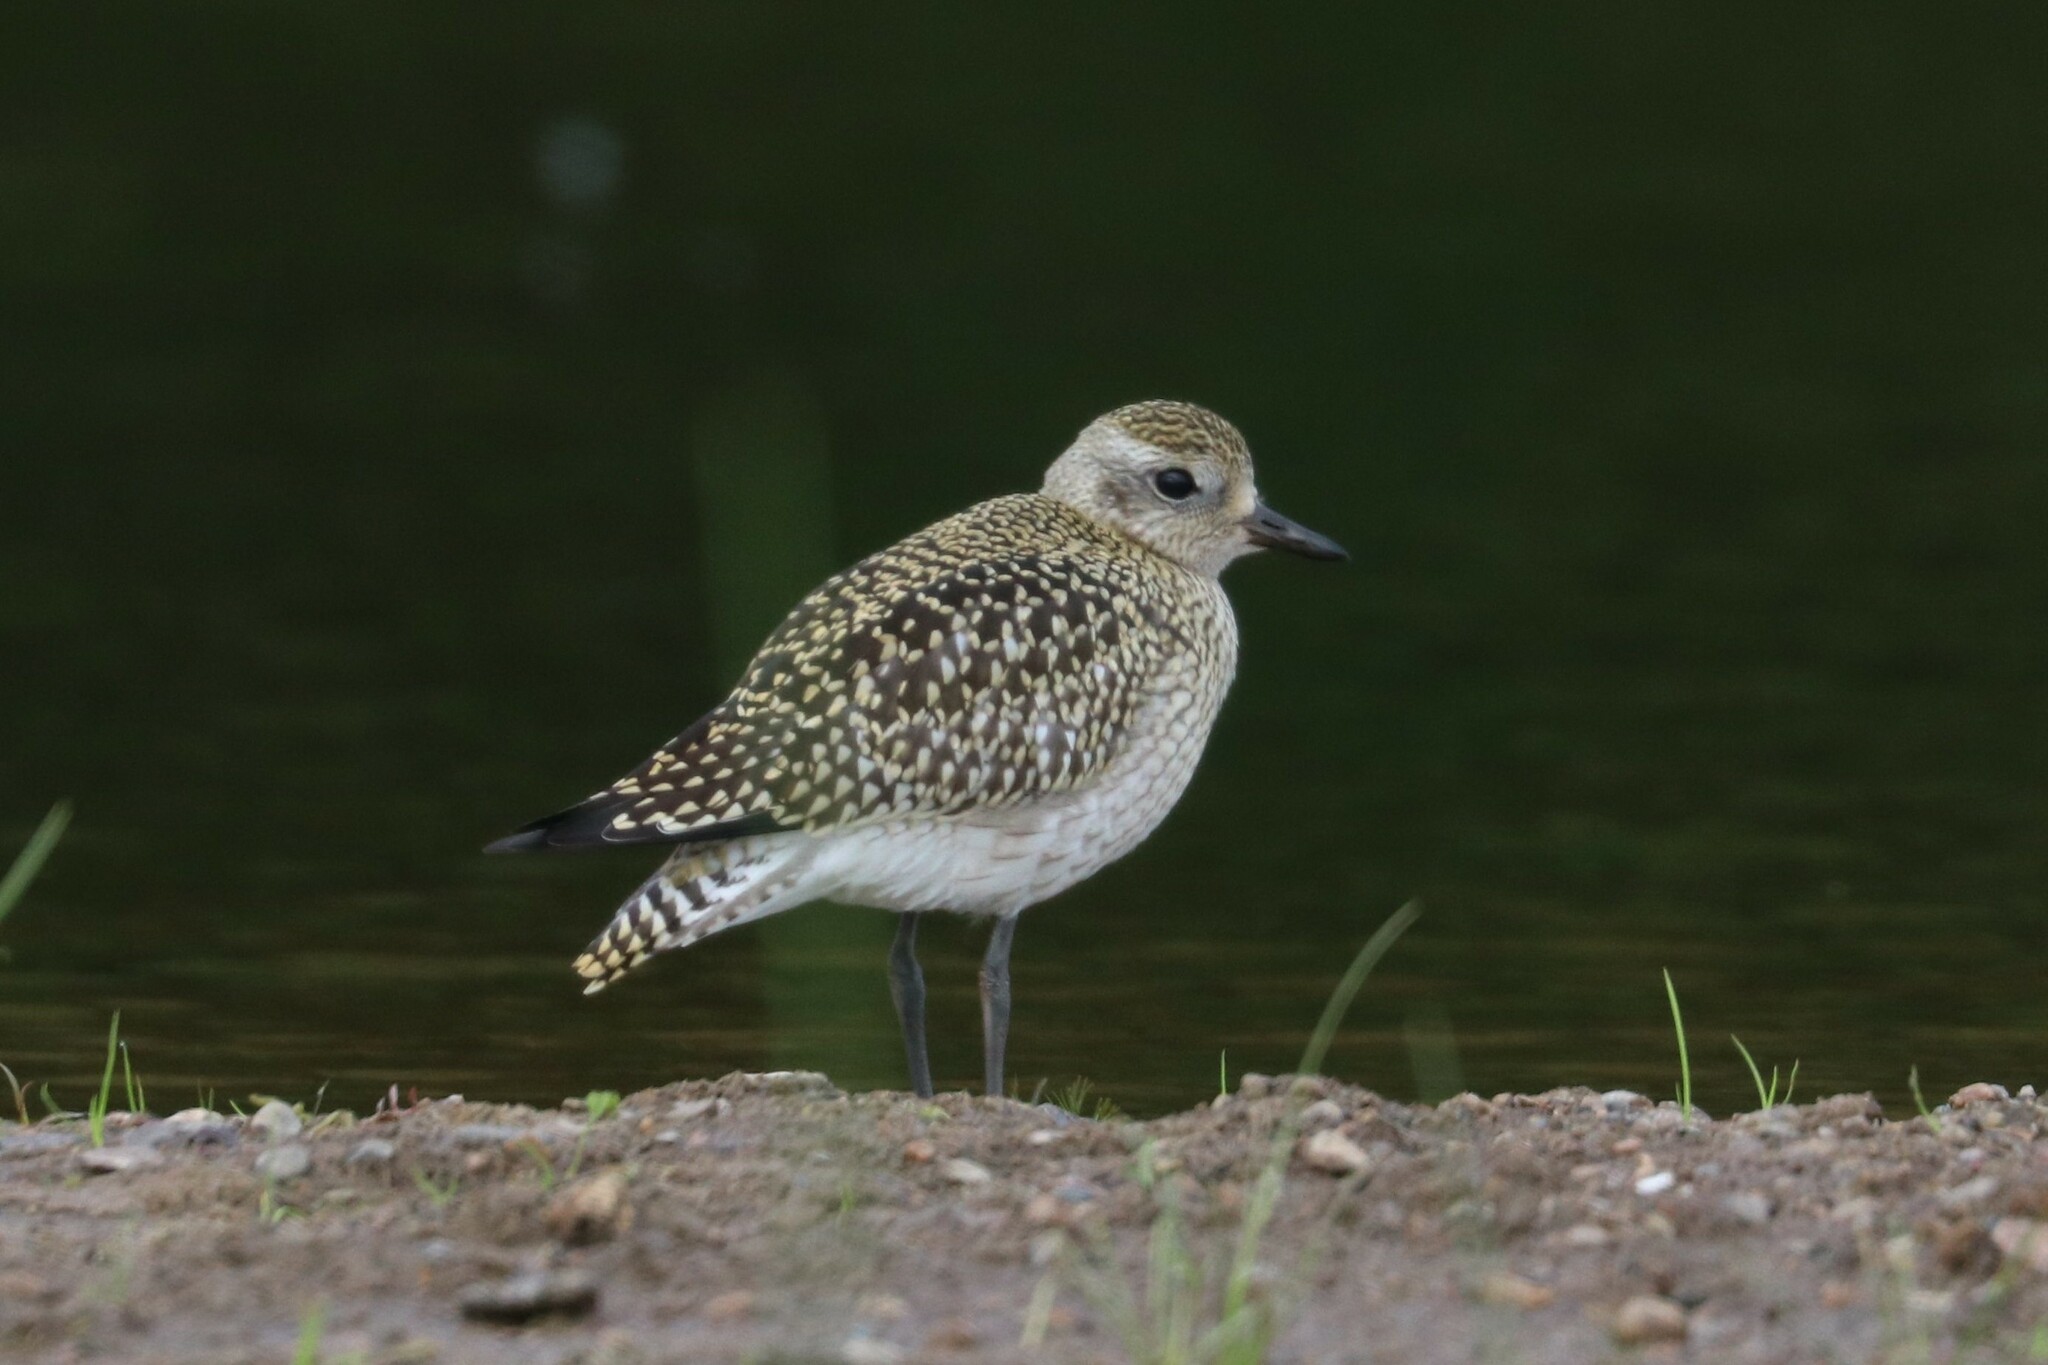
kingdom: Animalia
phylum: Chordata
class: Aves
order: Charadriiformes
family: Charadriidae
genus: Pluvialis
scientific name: Pluvialis apricaria
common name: European golden plover
